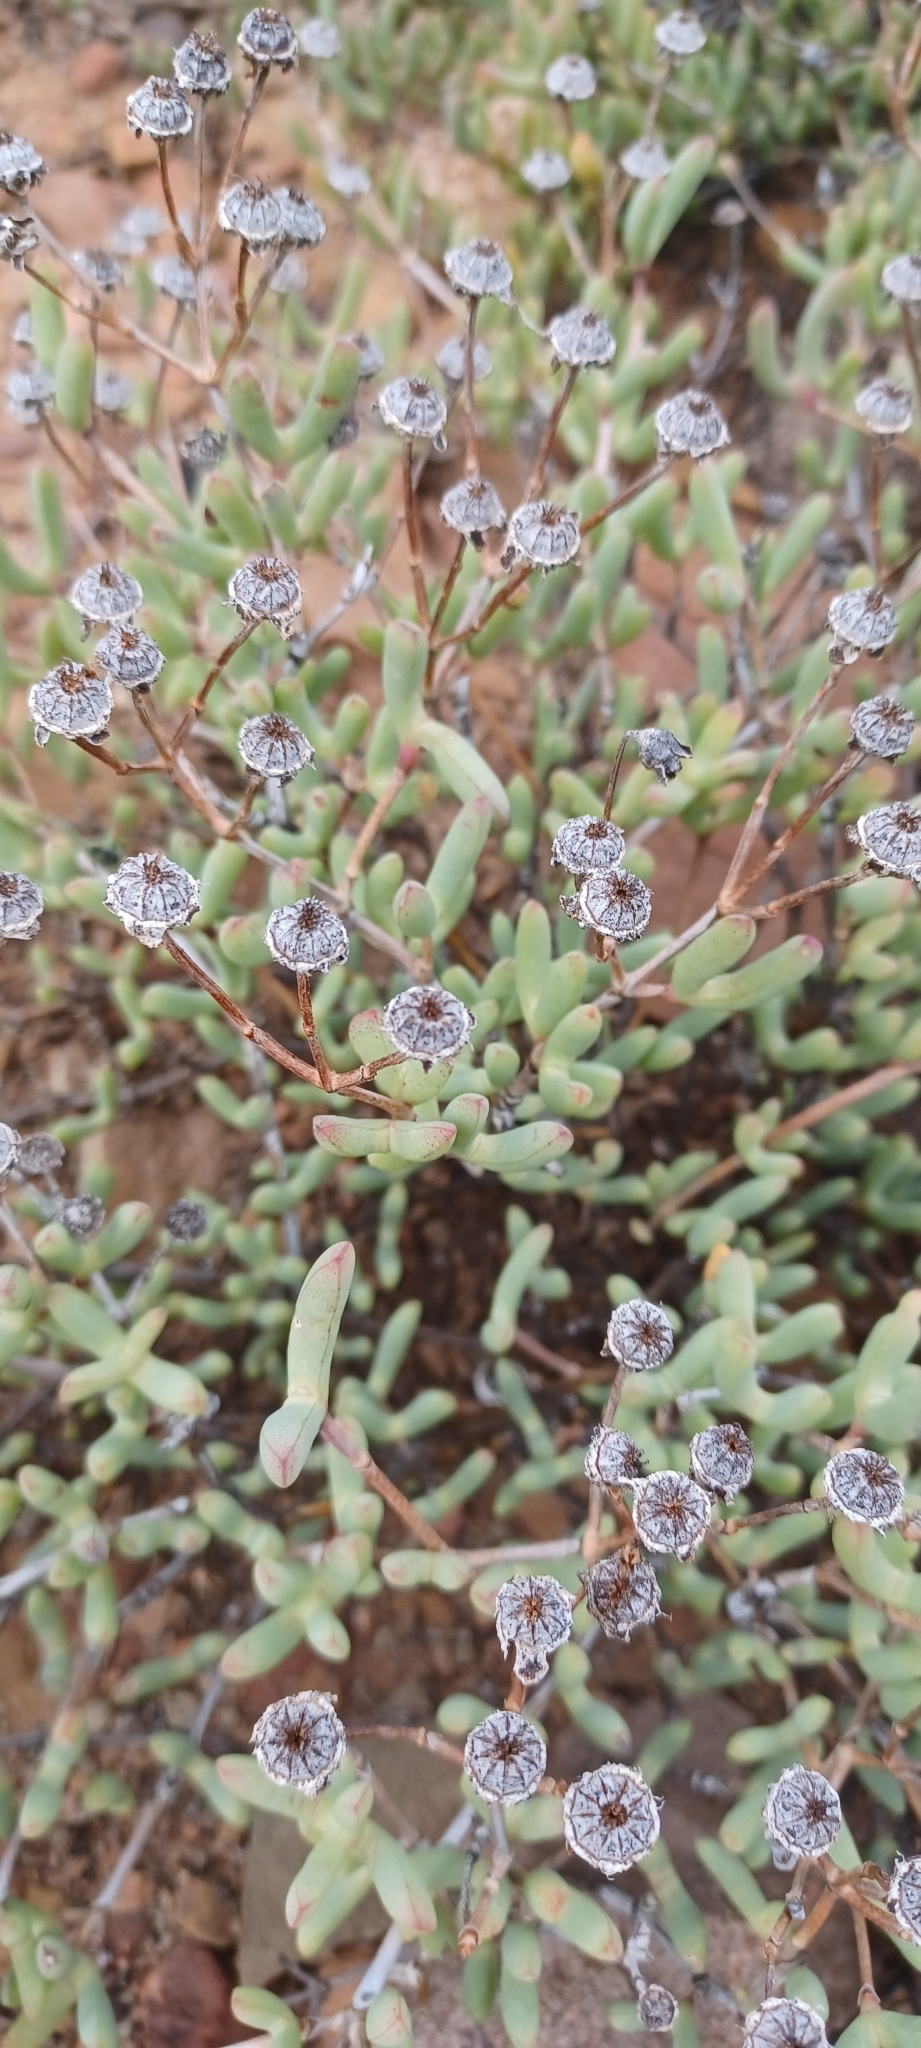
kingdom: Plantae
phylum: Tracheophyta
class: Magnoliopsida
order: Caryophyllales
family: Aizoaceae
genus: Leipoldtia
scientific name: Leipoldtia schultzei
